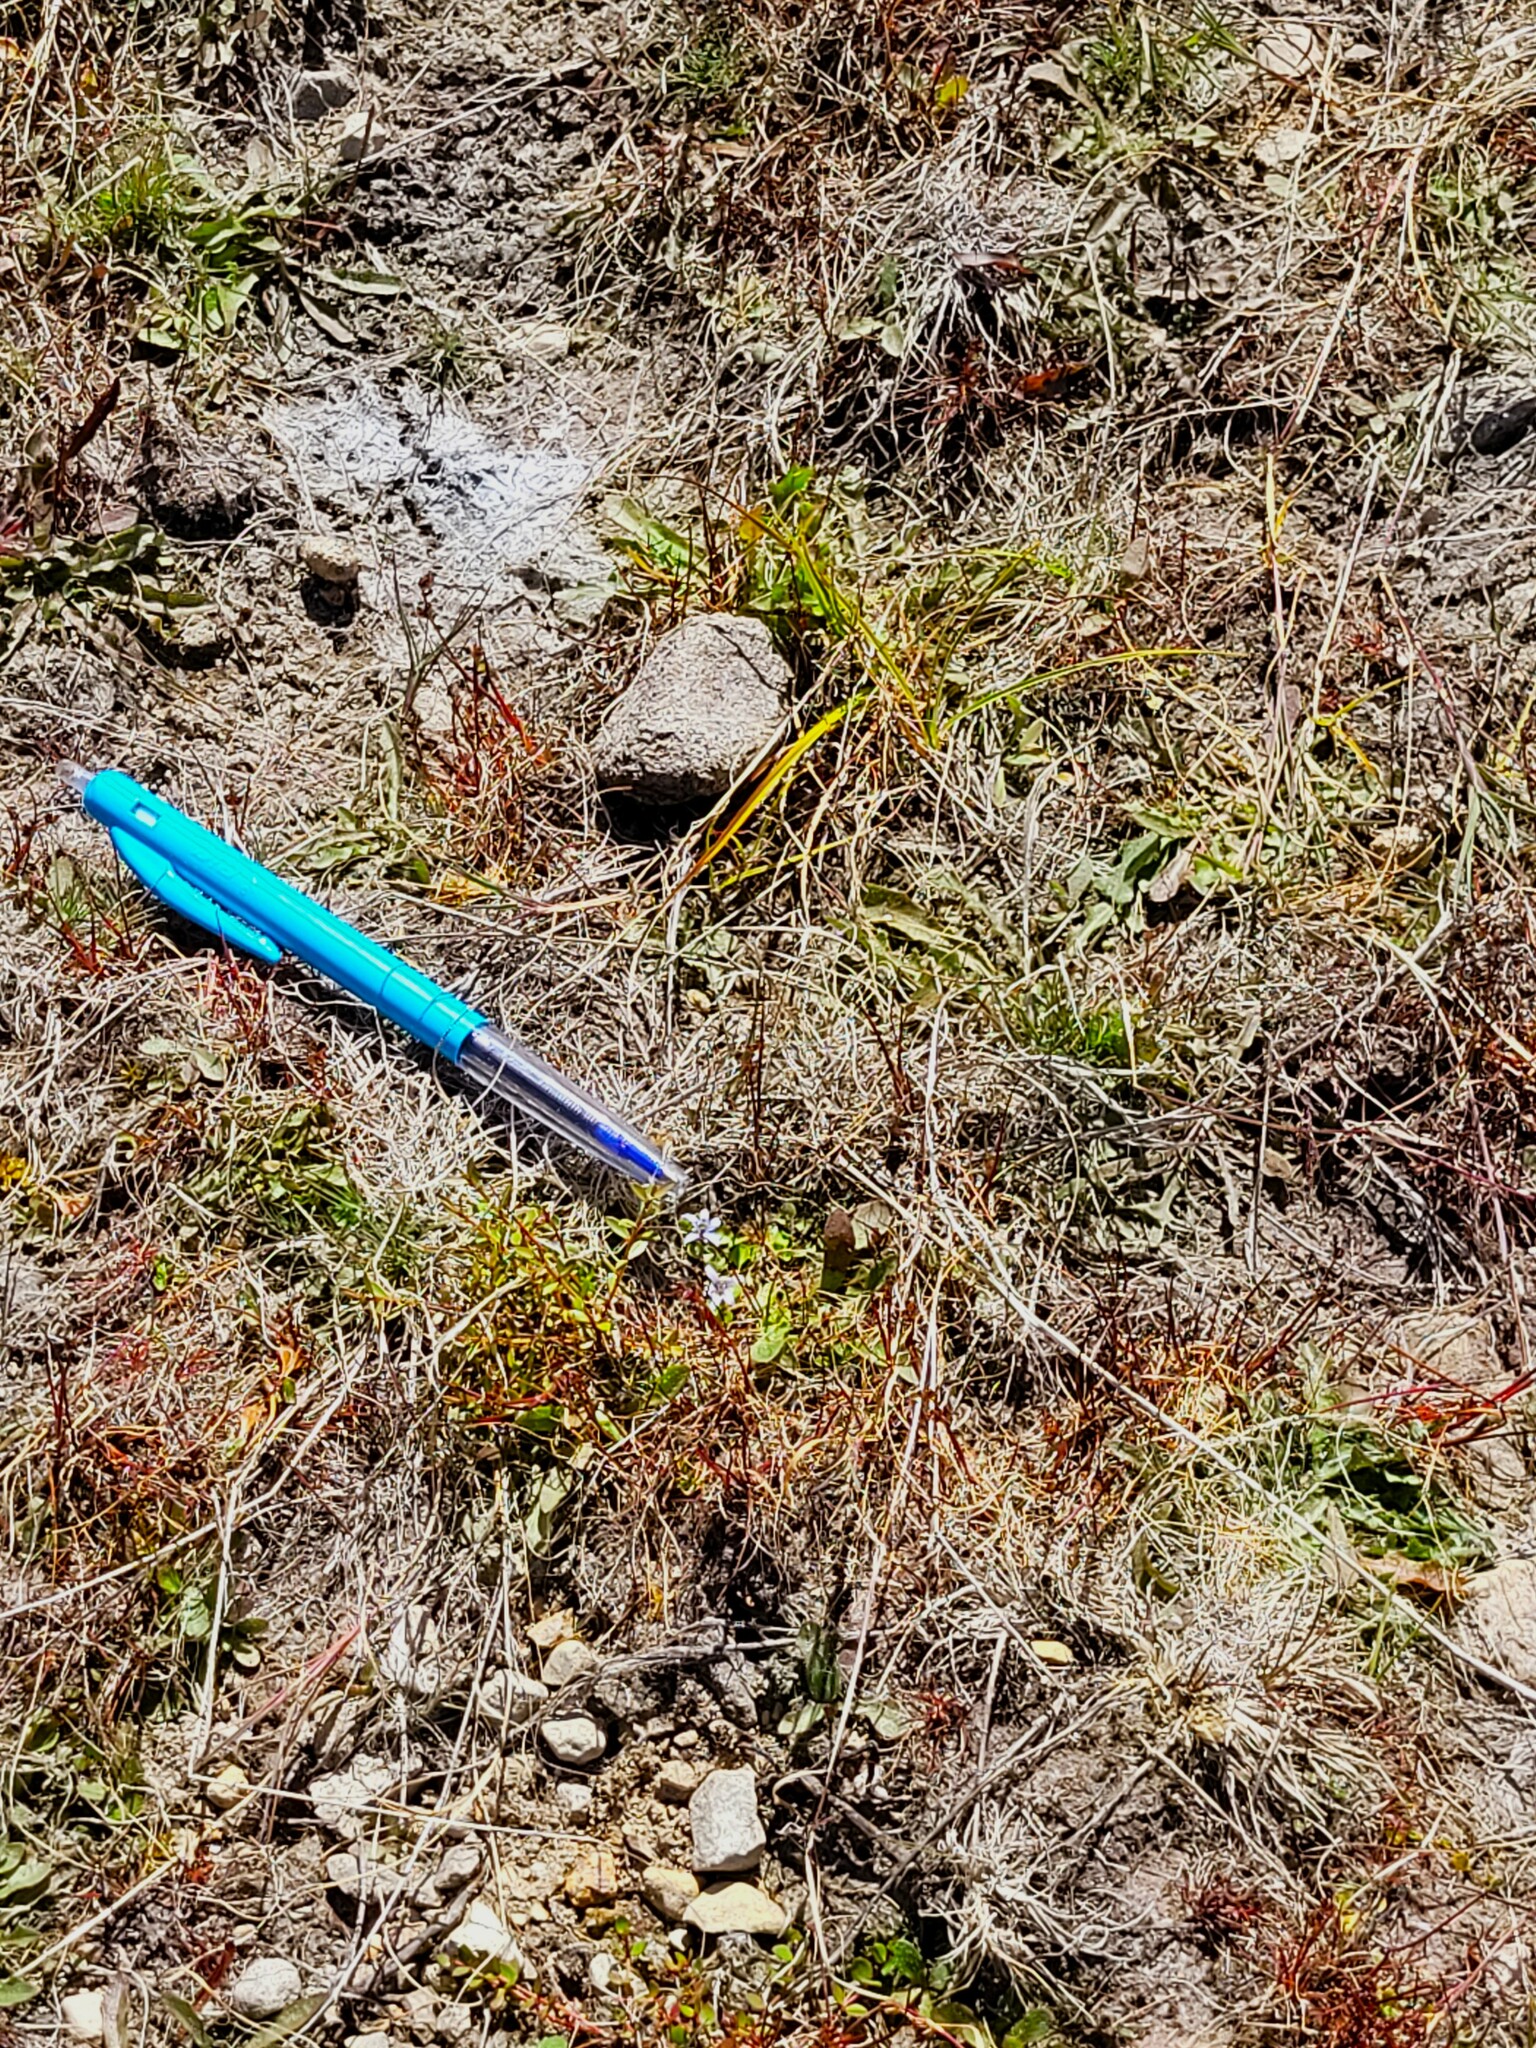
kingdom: Plantae
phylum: Tracheophyta
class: Magnoliopsida
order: Asterales
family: Campanulaceae
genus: Isotoma
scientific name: Isotoma rivalis
